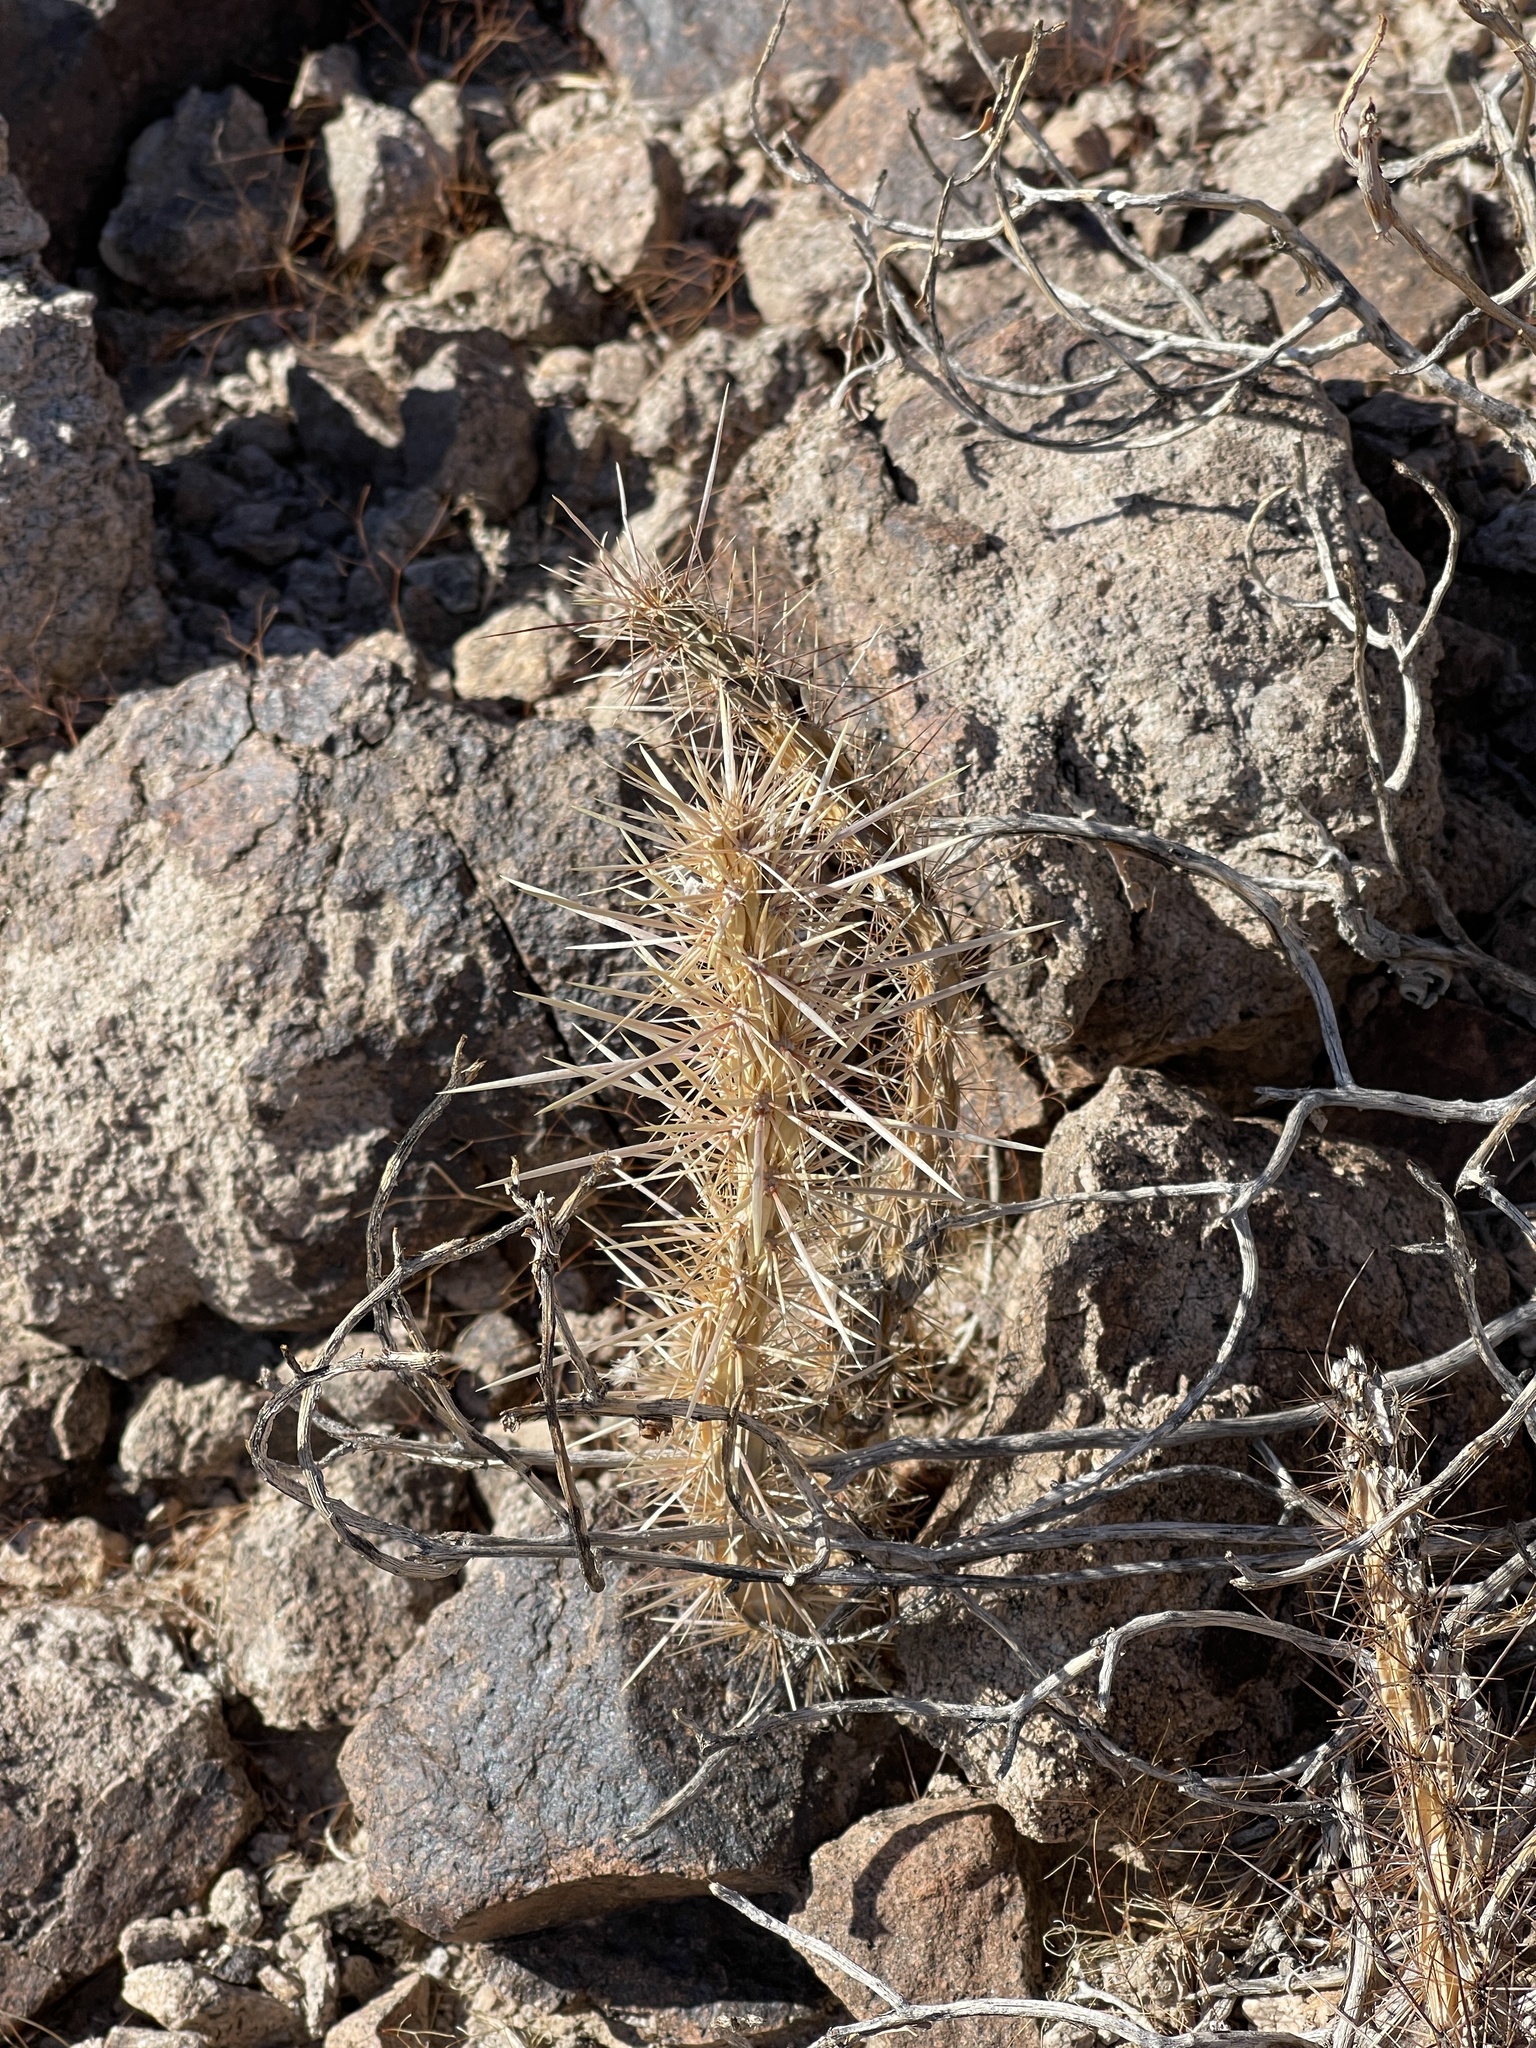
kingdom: Plantae
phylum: Tracheophyta
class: Magnoliopsida
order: Caryophyllales
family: Cactaceae
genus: Cylindropuntia
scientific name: Cylindropuntia acanthocarpa
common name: Buckhorn cholla
